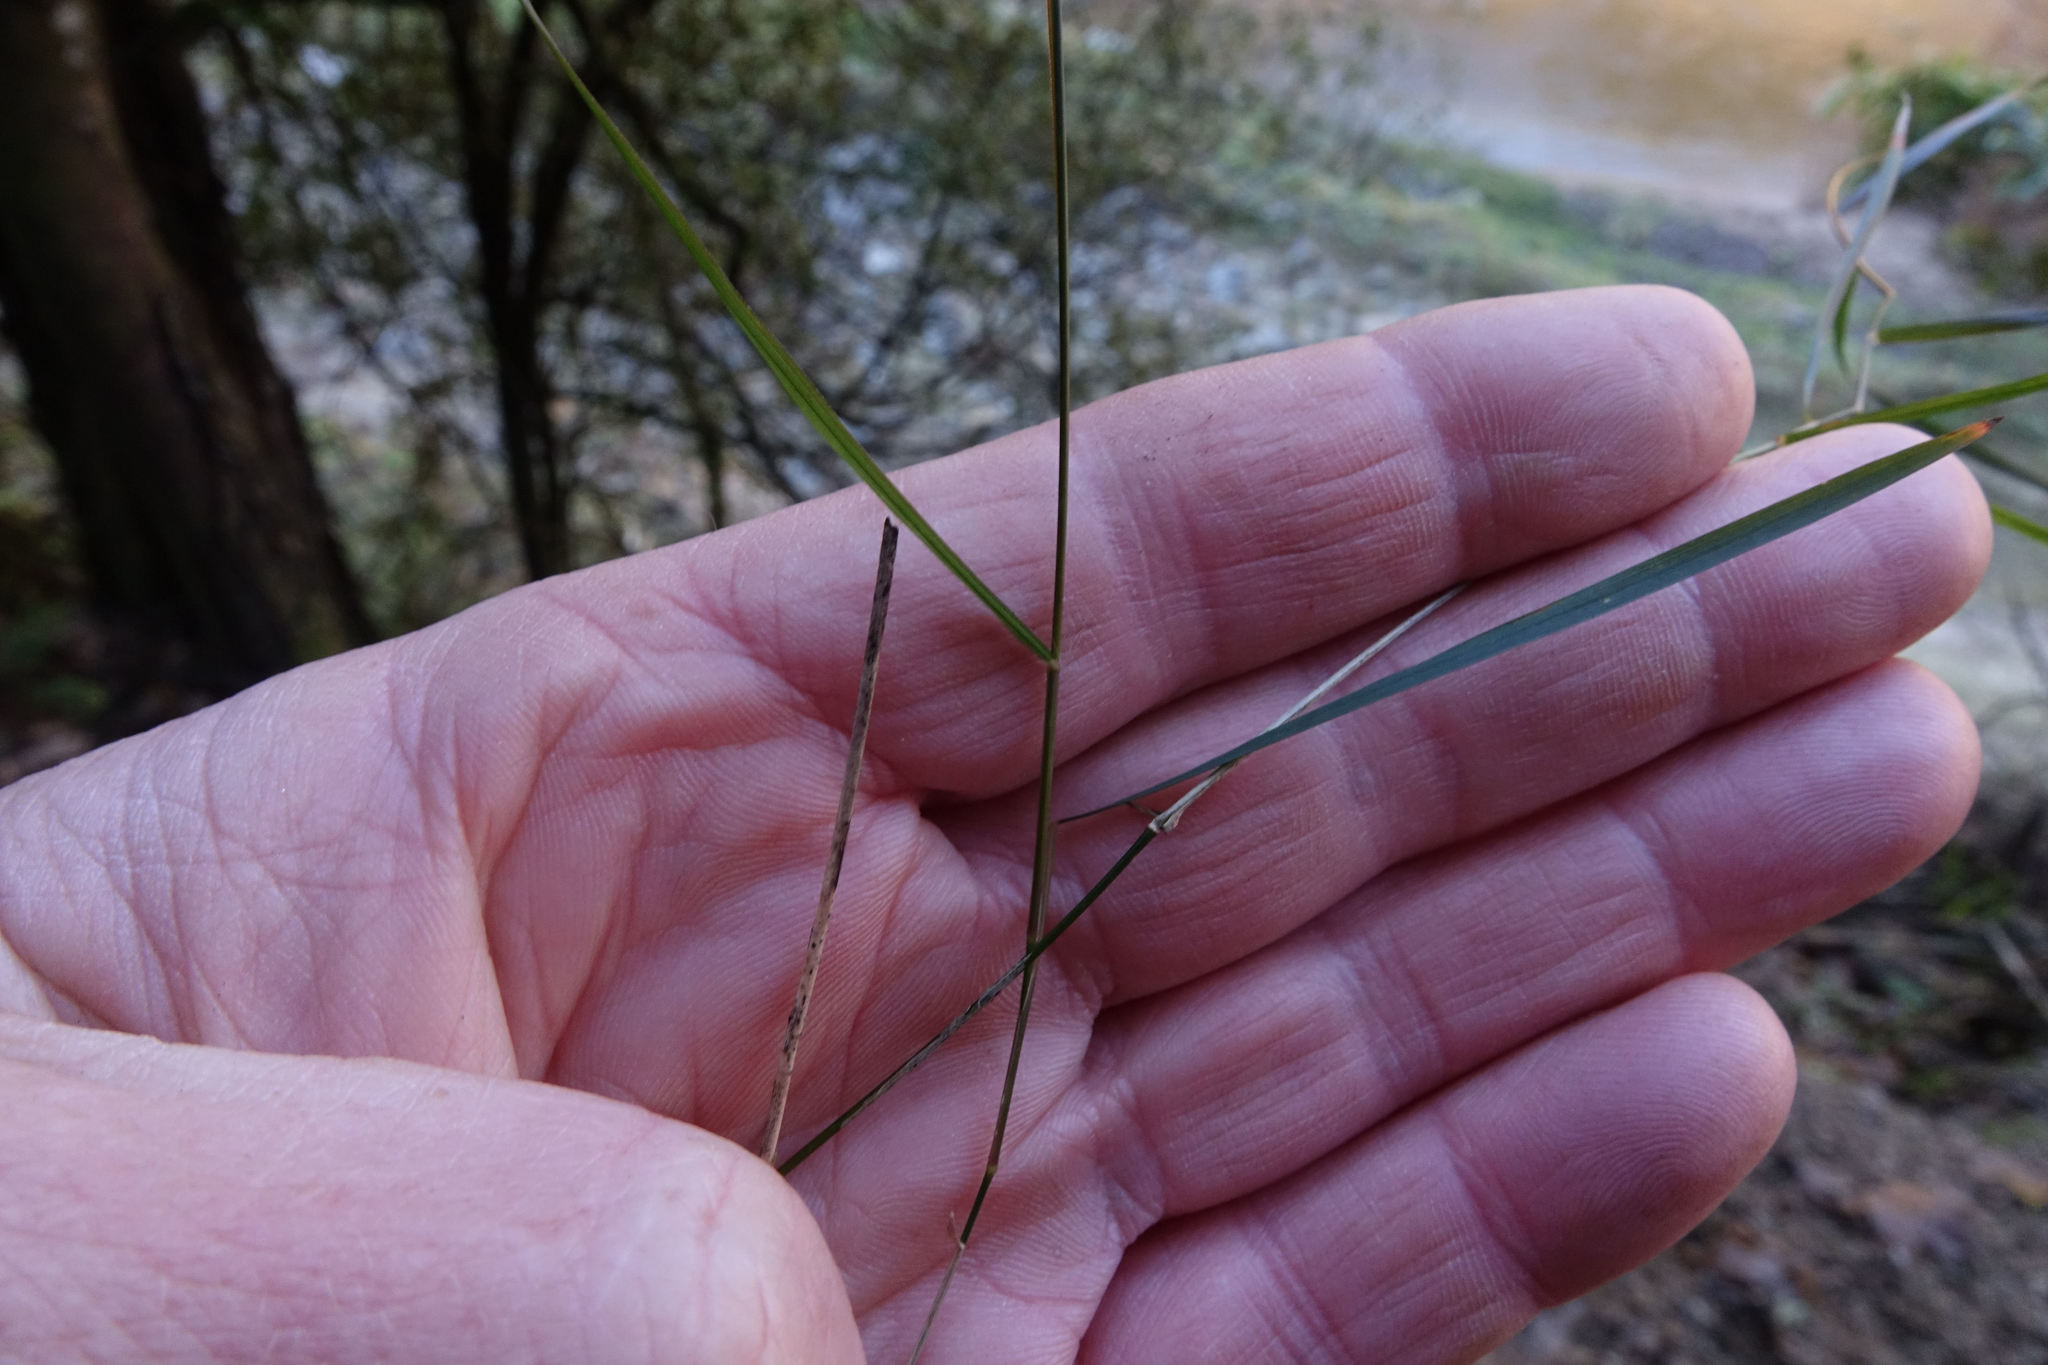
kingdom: Plantae
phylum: Tracheophyta
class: Liliopsida
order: Poales
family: Poaceae
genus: Microlaena
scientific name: Microlaena polynoda
